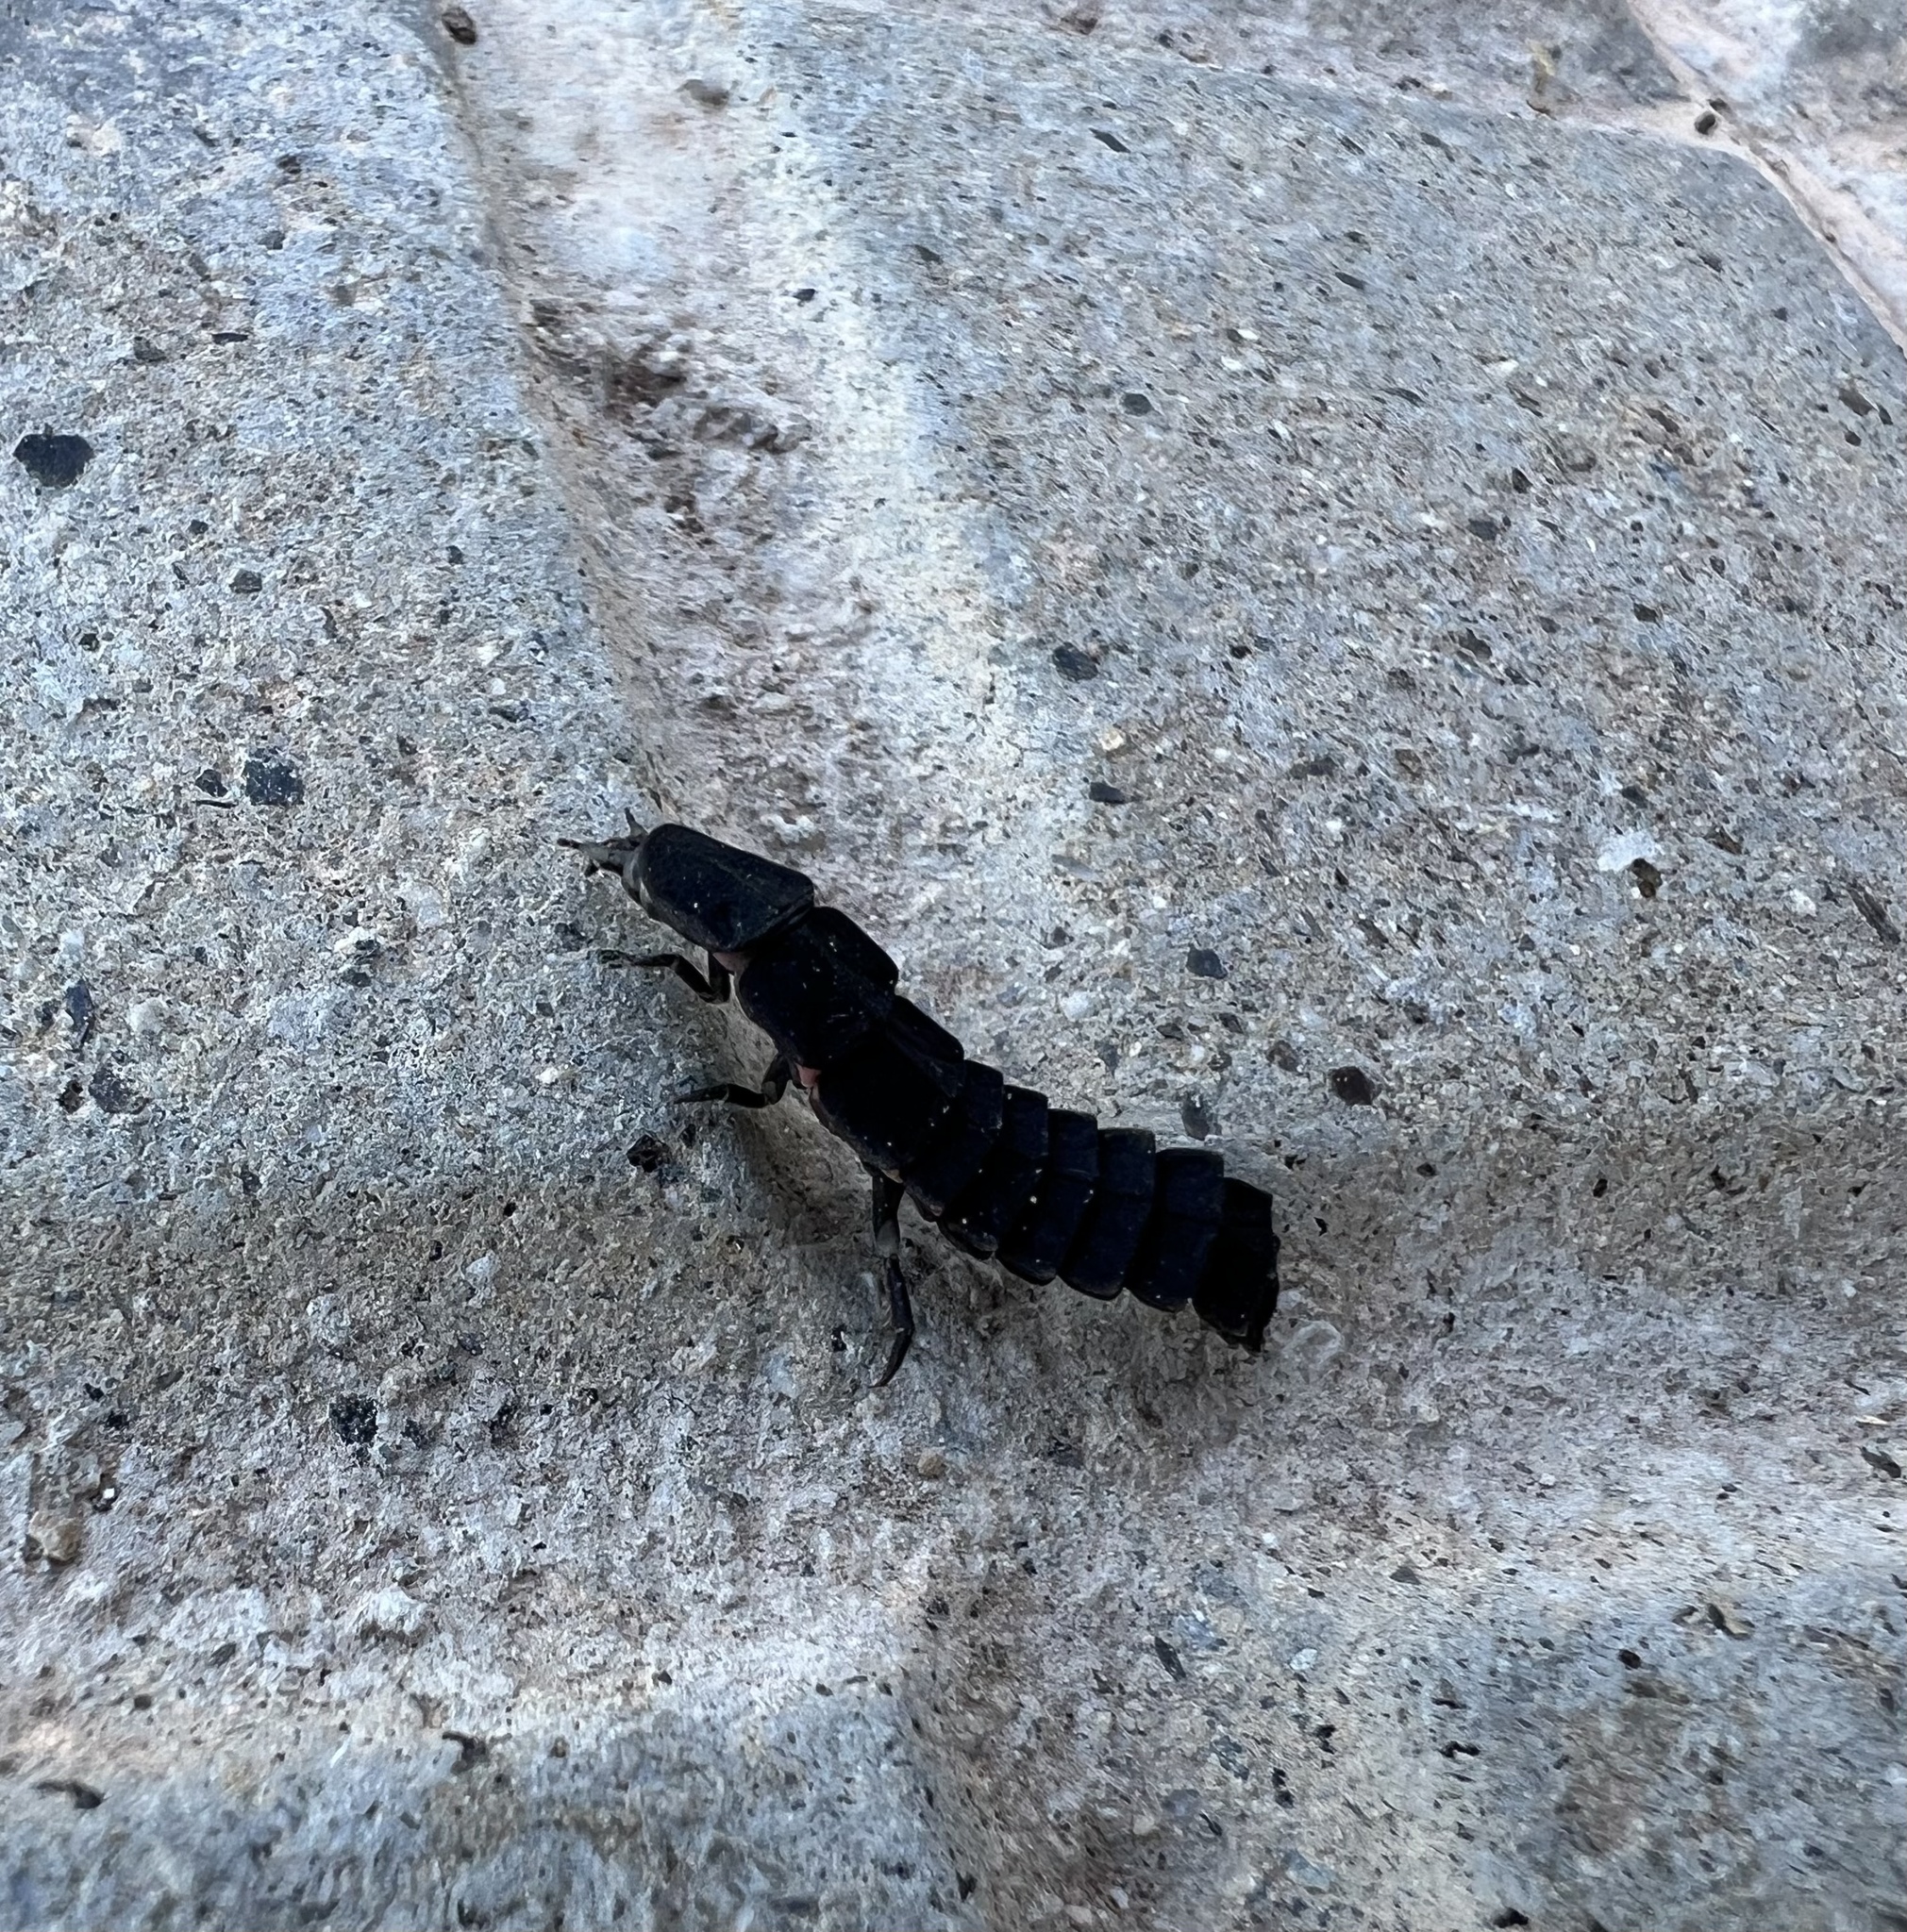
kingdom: Animalia
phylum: Arthropoda
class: Insecta
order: Coleoptera
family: Lampyridae
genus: Nyctophila
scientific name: Nyctophila reichii
